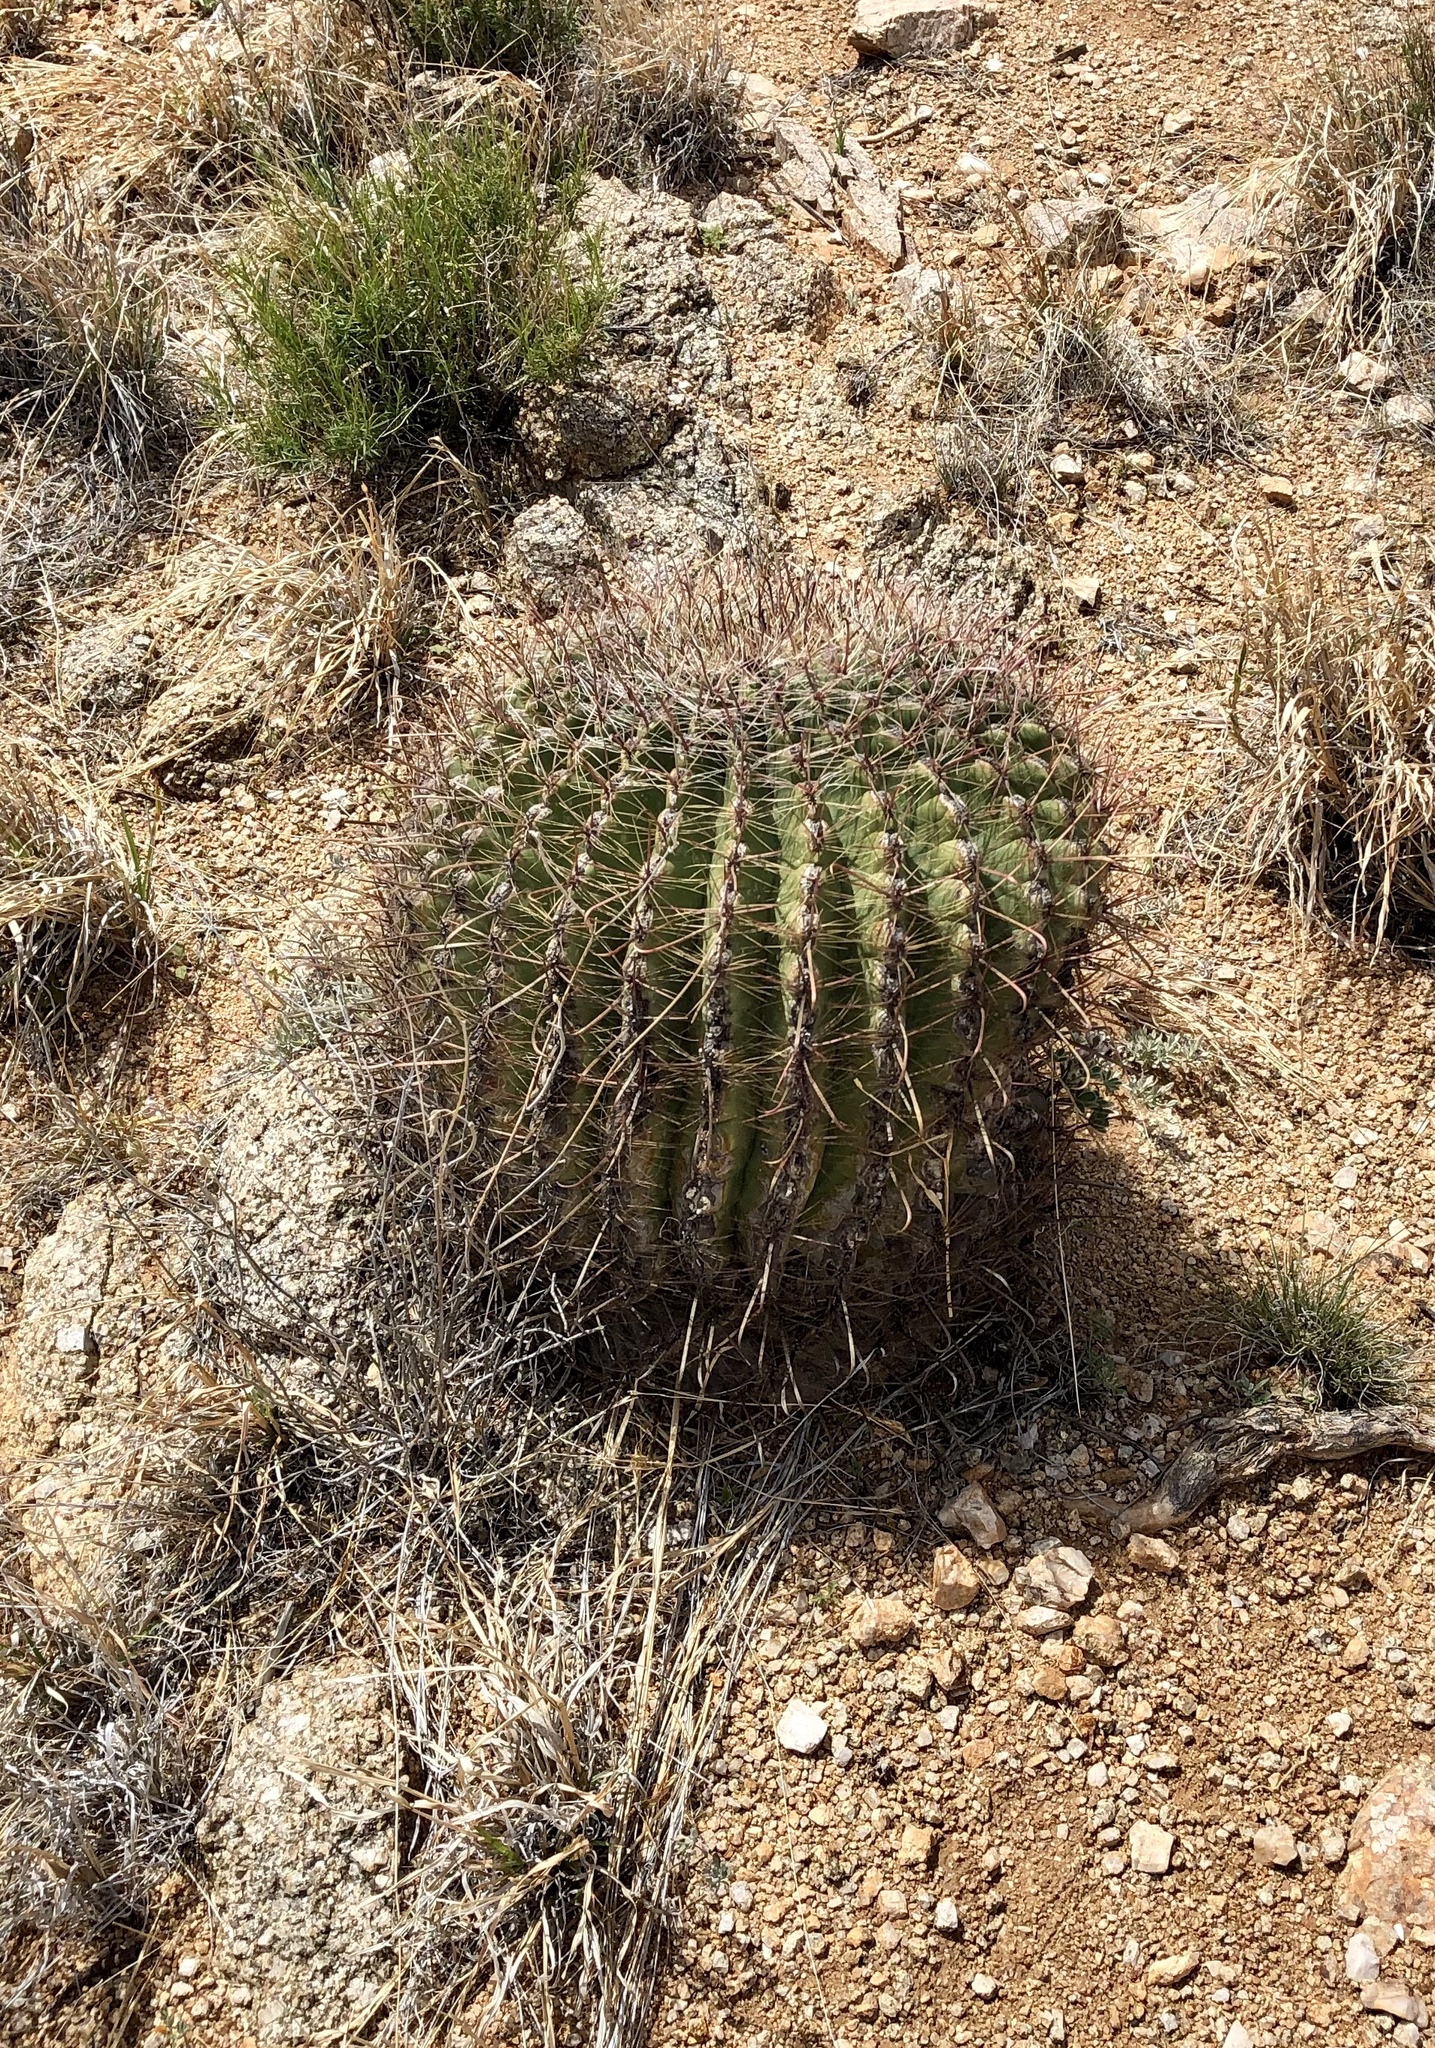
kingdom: Plantae
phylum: Tracheophyta
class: Magnoliopsida
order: Caryophyllales
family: Cactaceae
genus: Ferocactus
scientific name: Ferocactus wislizeni
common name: Candy barrel cactus
